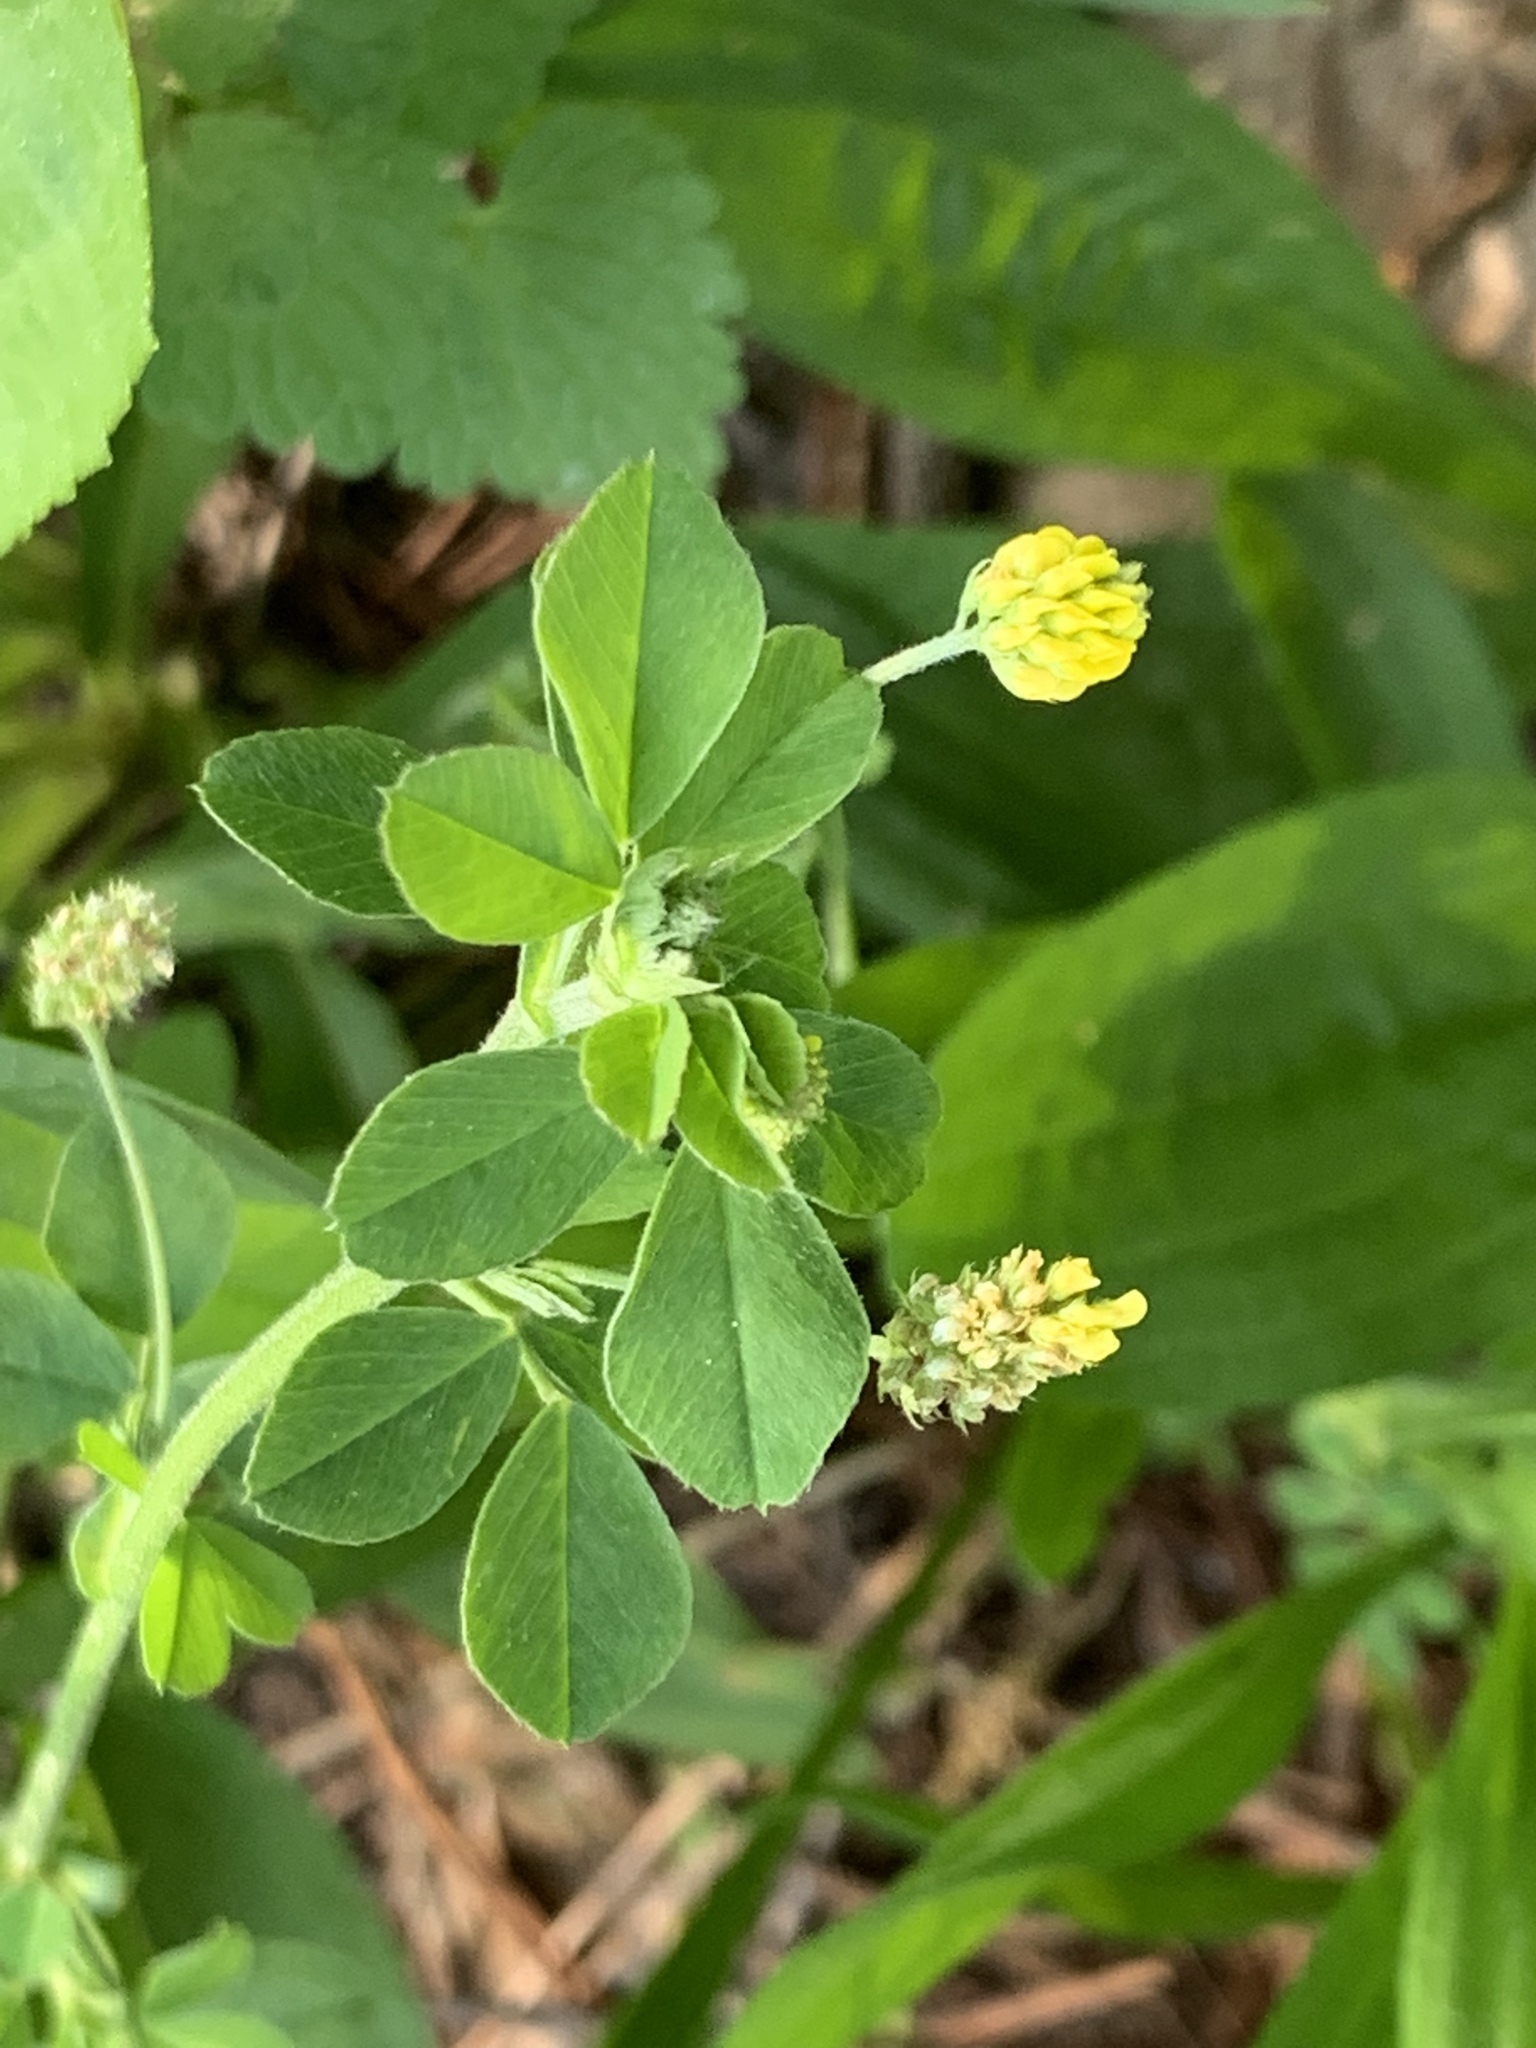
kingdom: Plantae
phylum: Tracheophyta
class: Magnoliopsida
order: Fabales
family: Fabaceae
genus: Medicago
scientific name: Medicago lupulina
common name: Black medick
